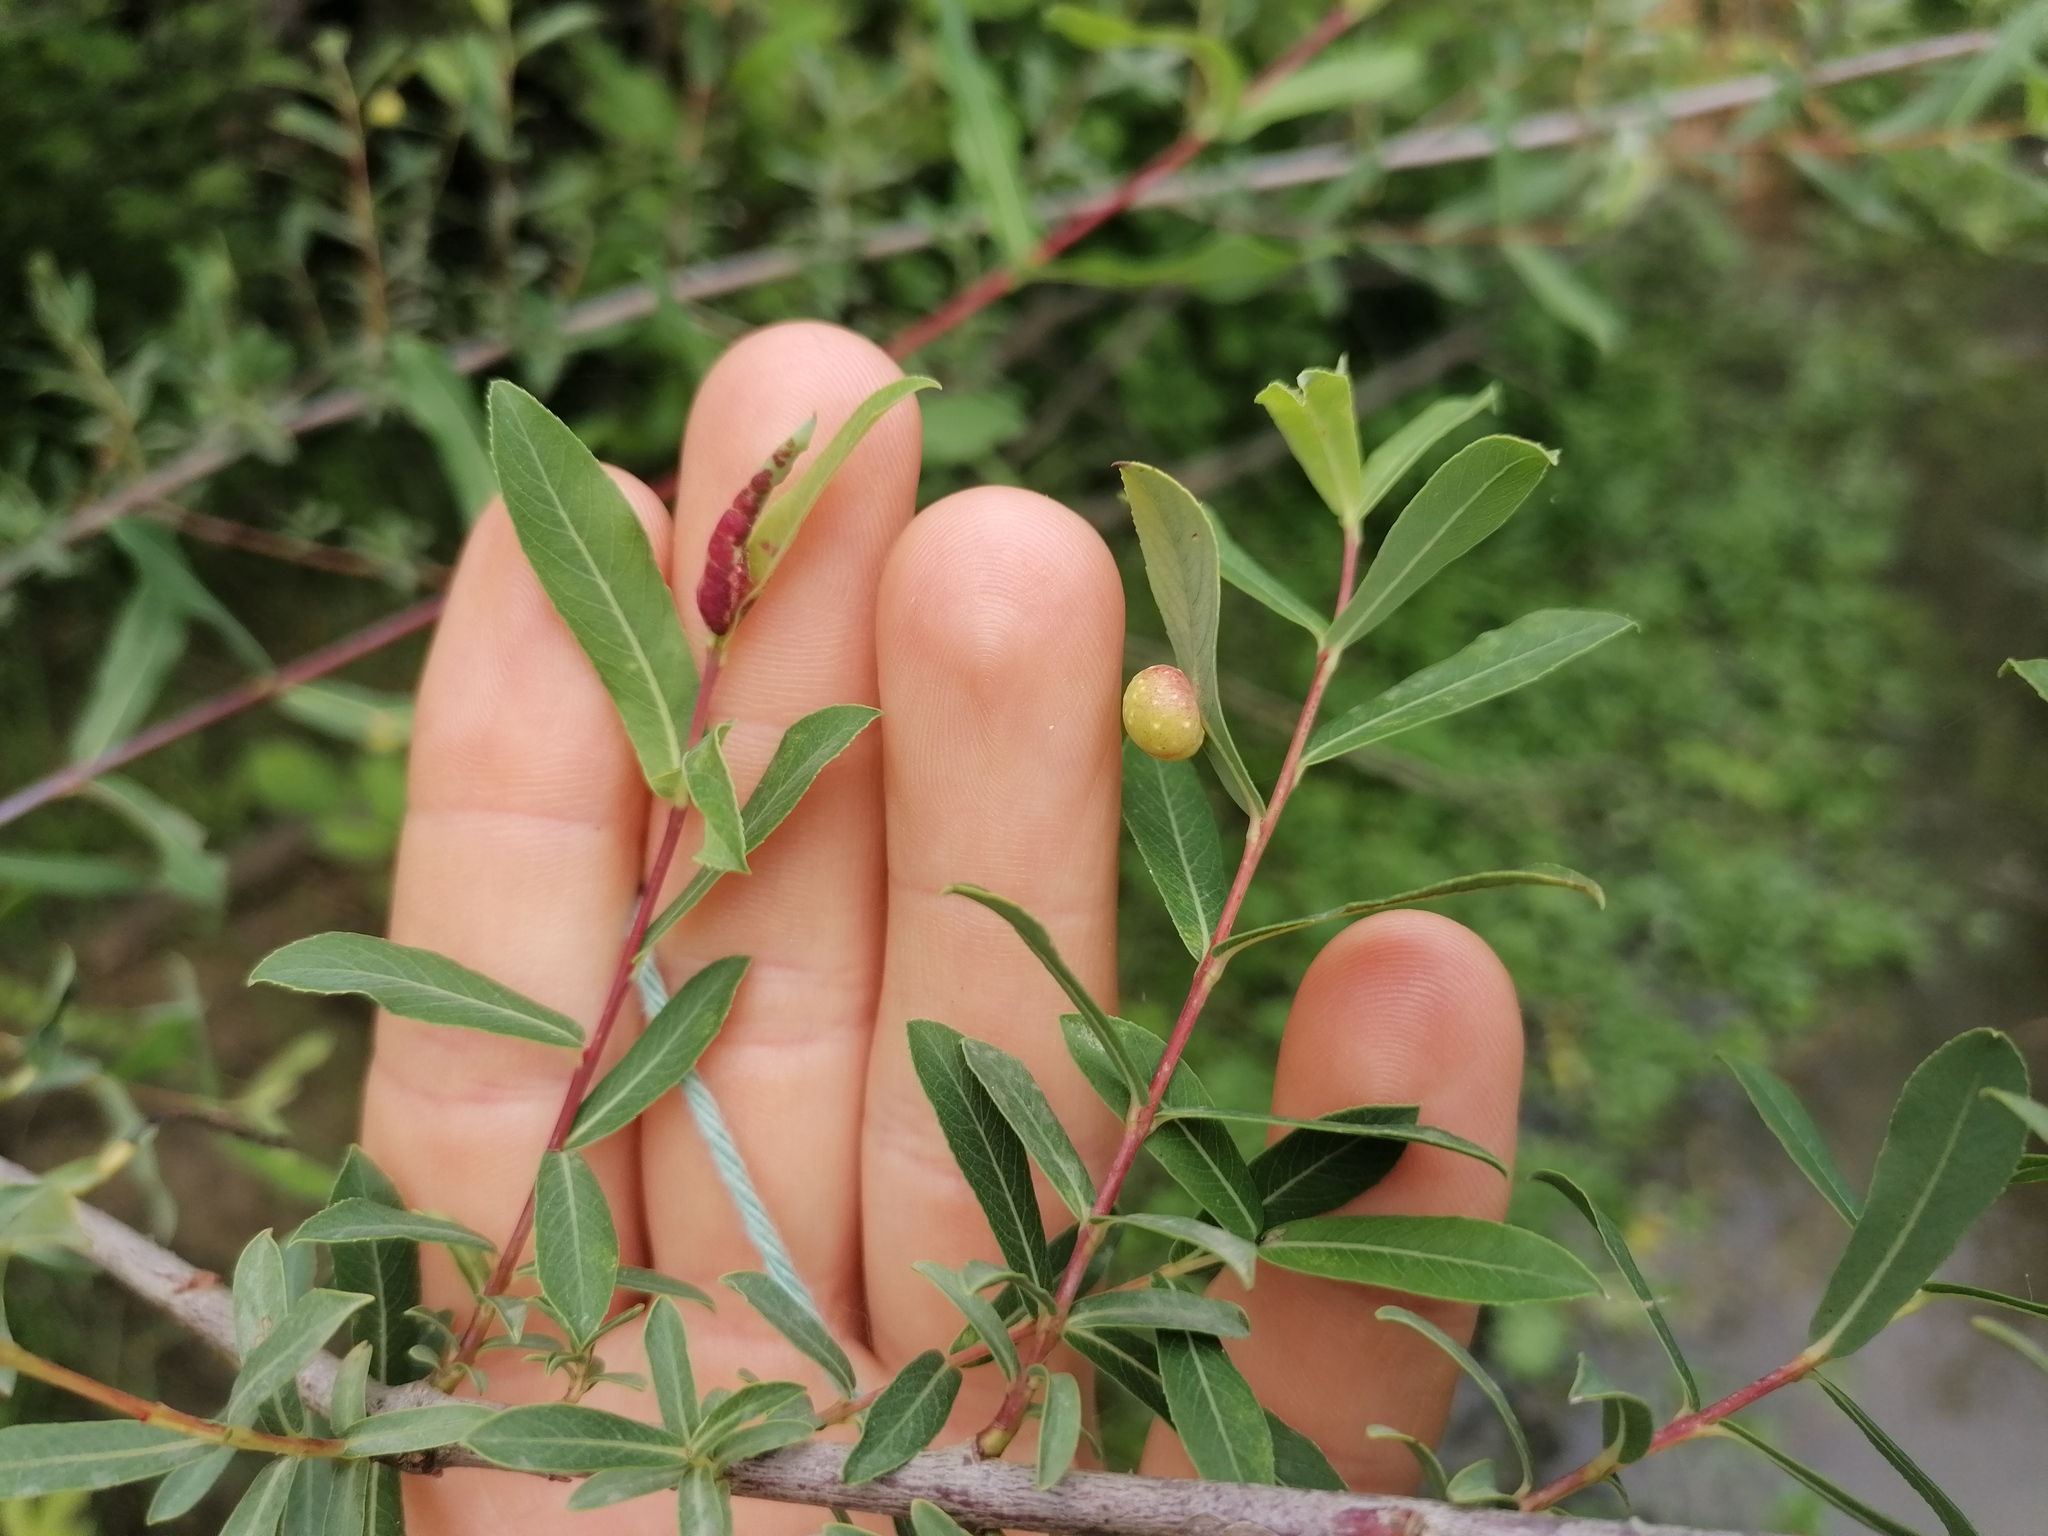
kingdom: Animalia
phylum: Arthropoda
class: Insecta
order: Hymenoptera
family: Tenthredinidae
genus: Euura
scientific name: Euura viminalis
